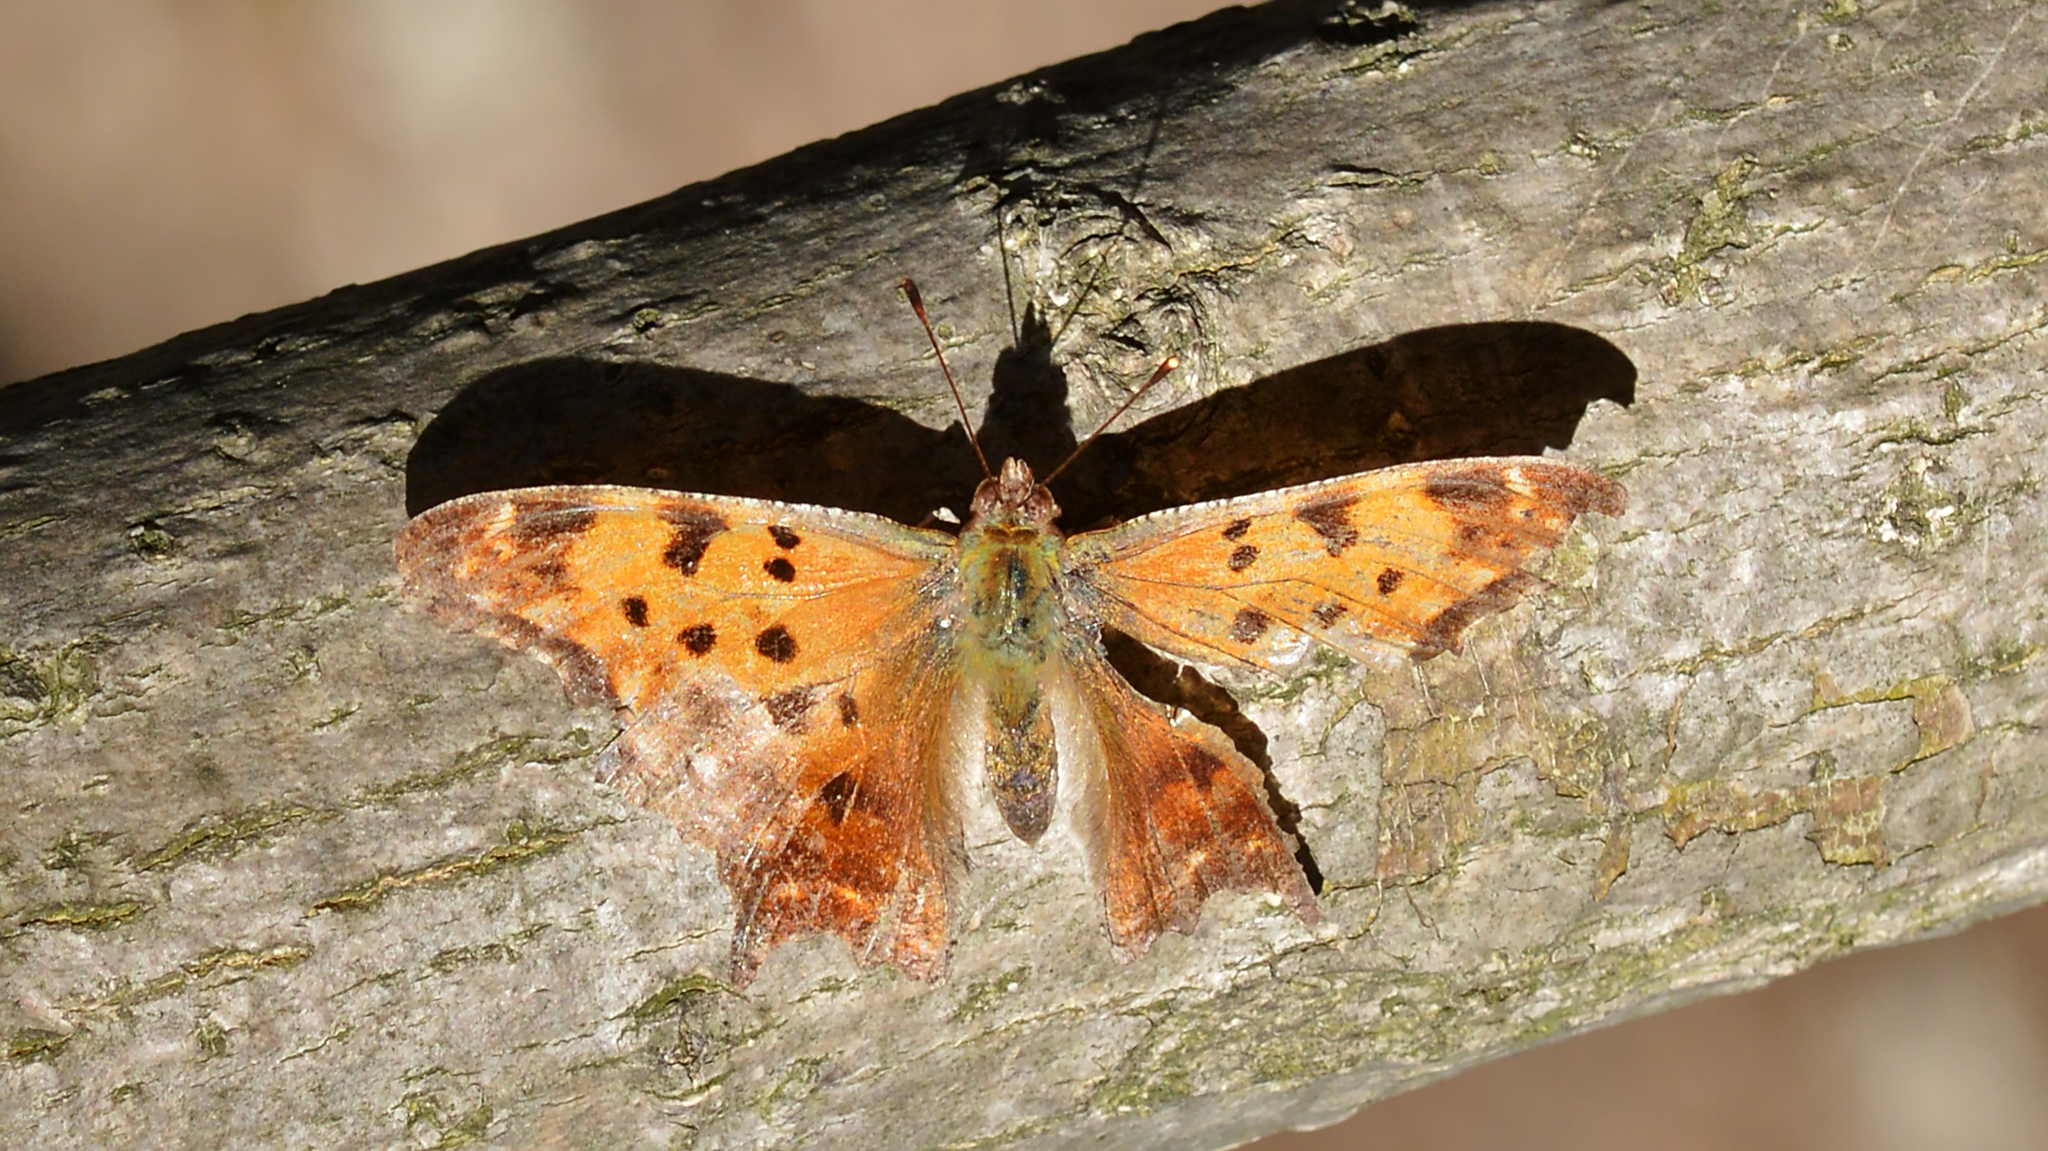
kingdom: Animalia
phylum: Arthropoda
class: Insecta
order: Lepidoptera
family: Nymphalidae
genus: Polygonia
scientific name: Polygonia comma
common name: Eastern comma
